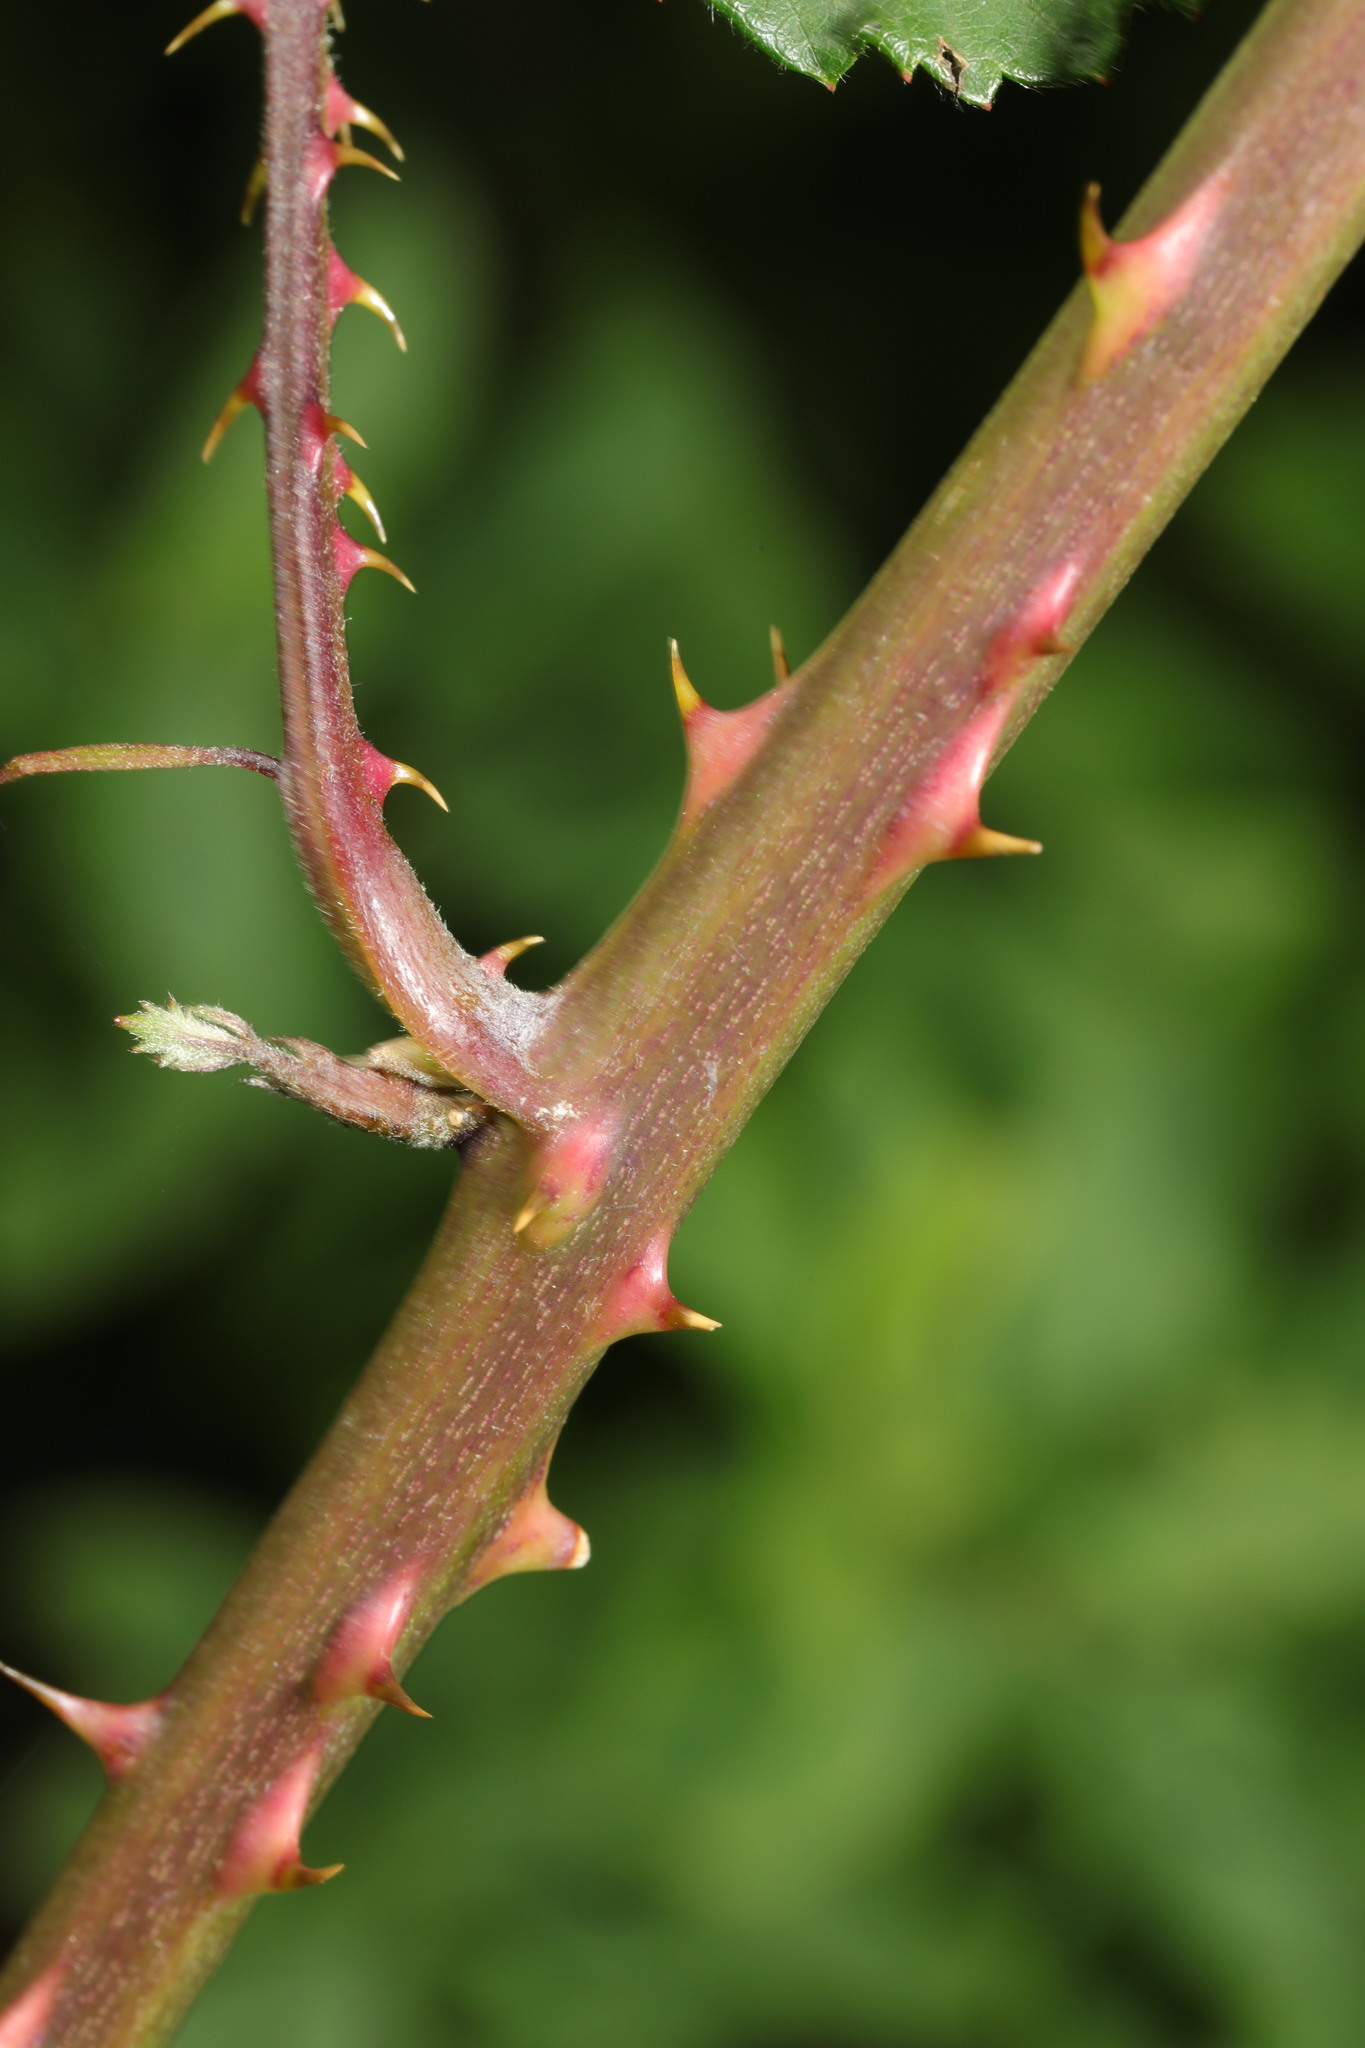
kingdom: Plantae
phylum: Tracheophyta
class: Magnoliopsida
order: Rosales
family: Rosaceae
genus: Rubus
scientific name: Rubus lindleyanus
